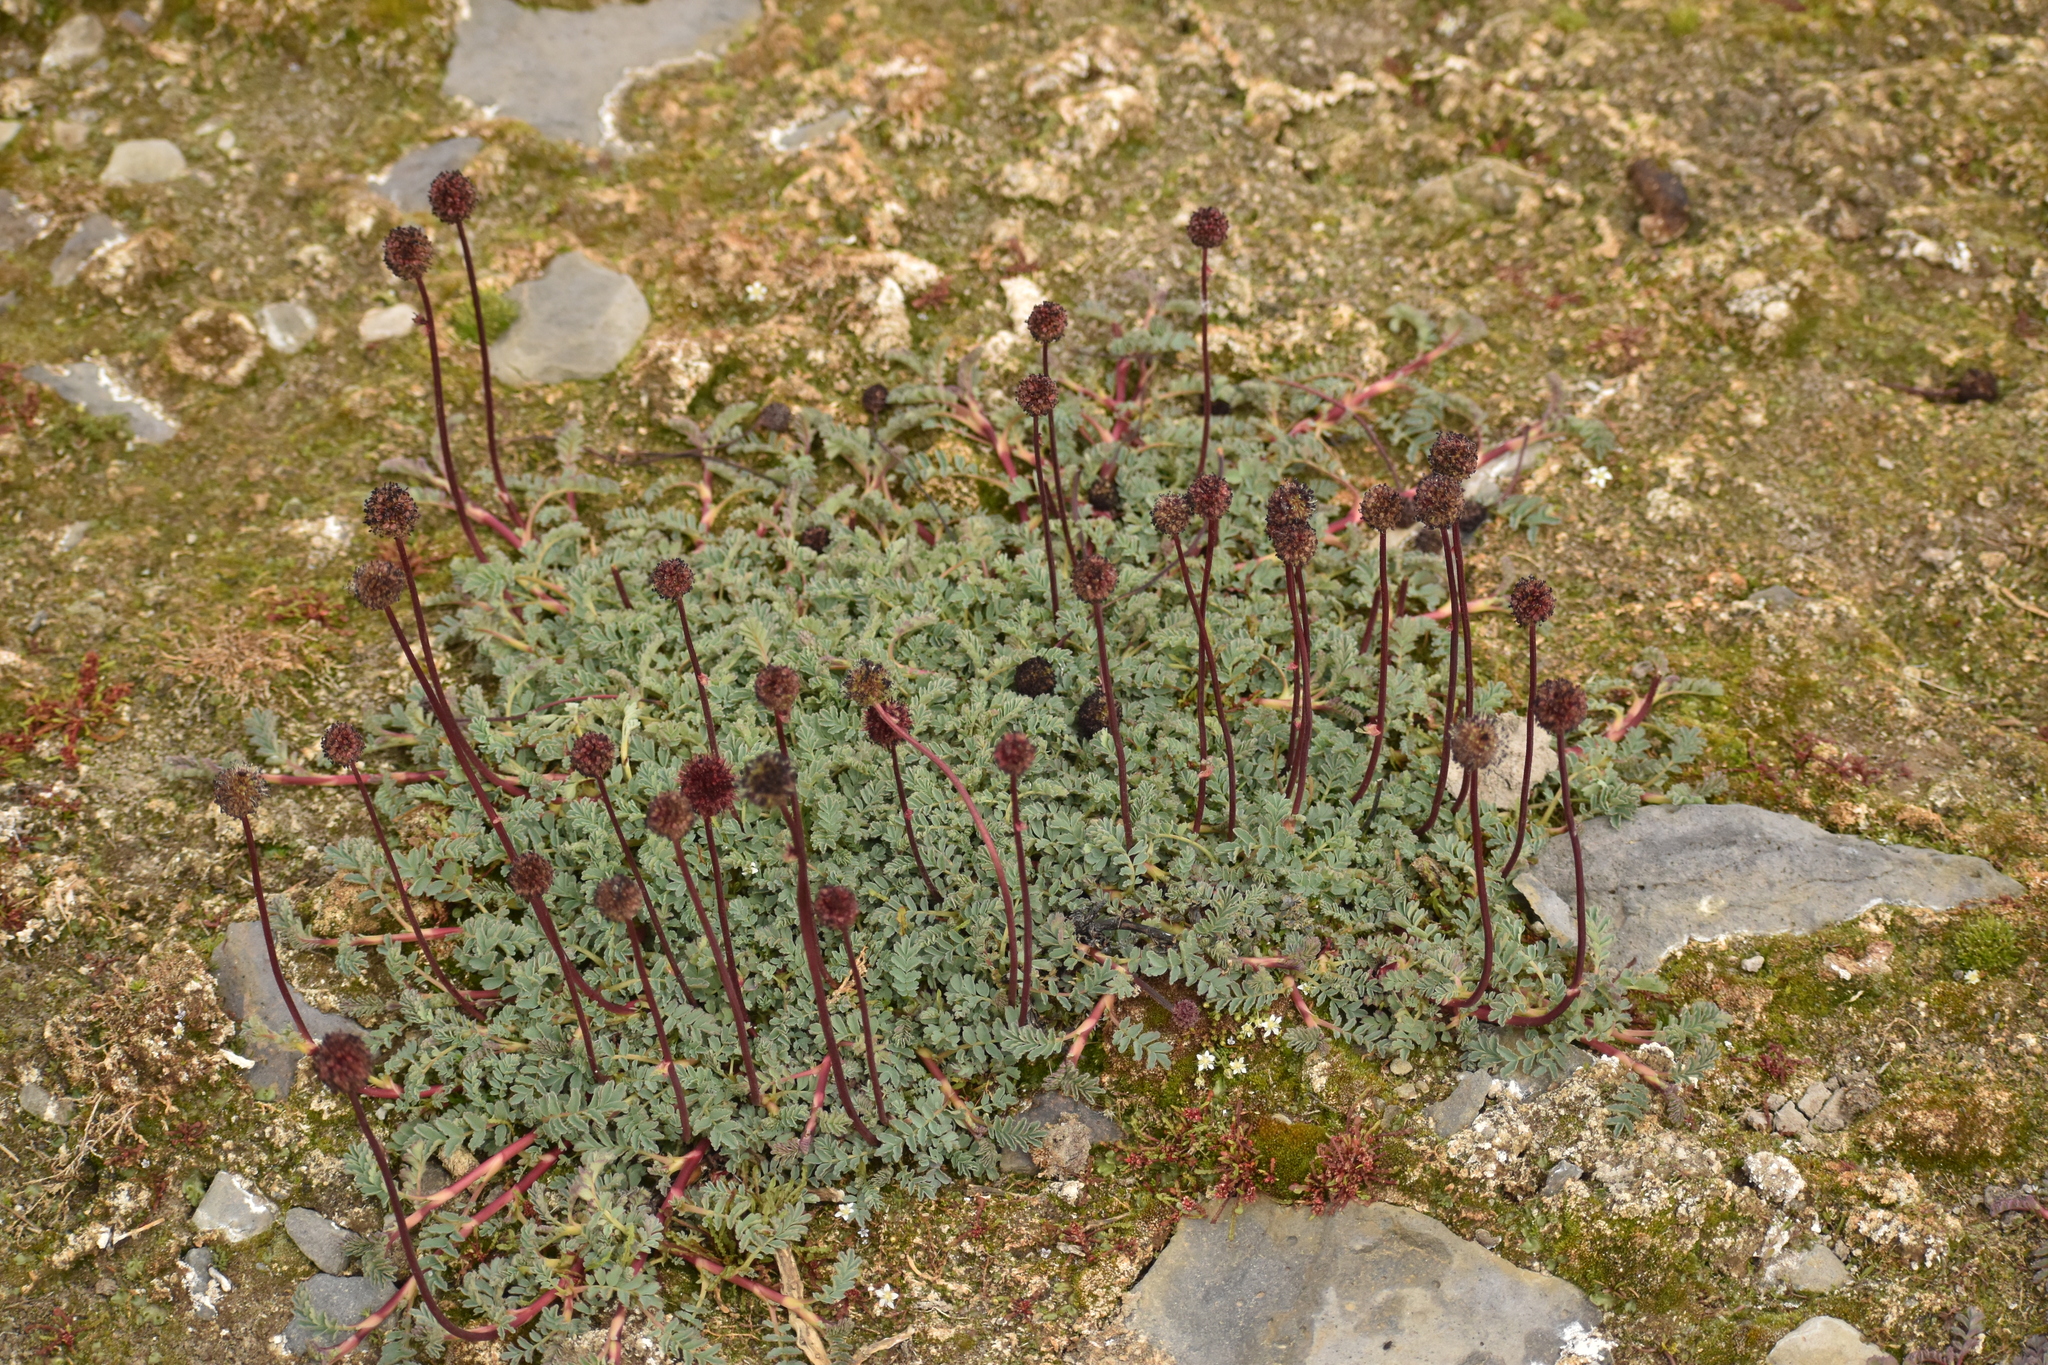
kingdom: Plantae
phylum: Tracheophyta
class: Magnoliopsida
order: Rosales
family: Rosaceae
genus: Acaena
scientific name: Acaena magellanica
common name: New zealand burr
